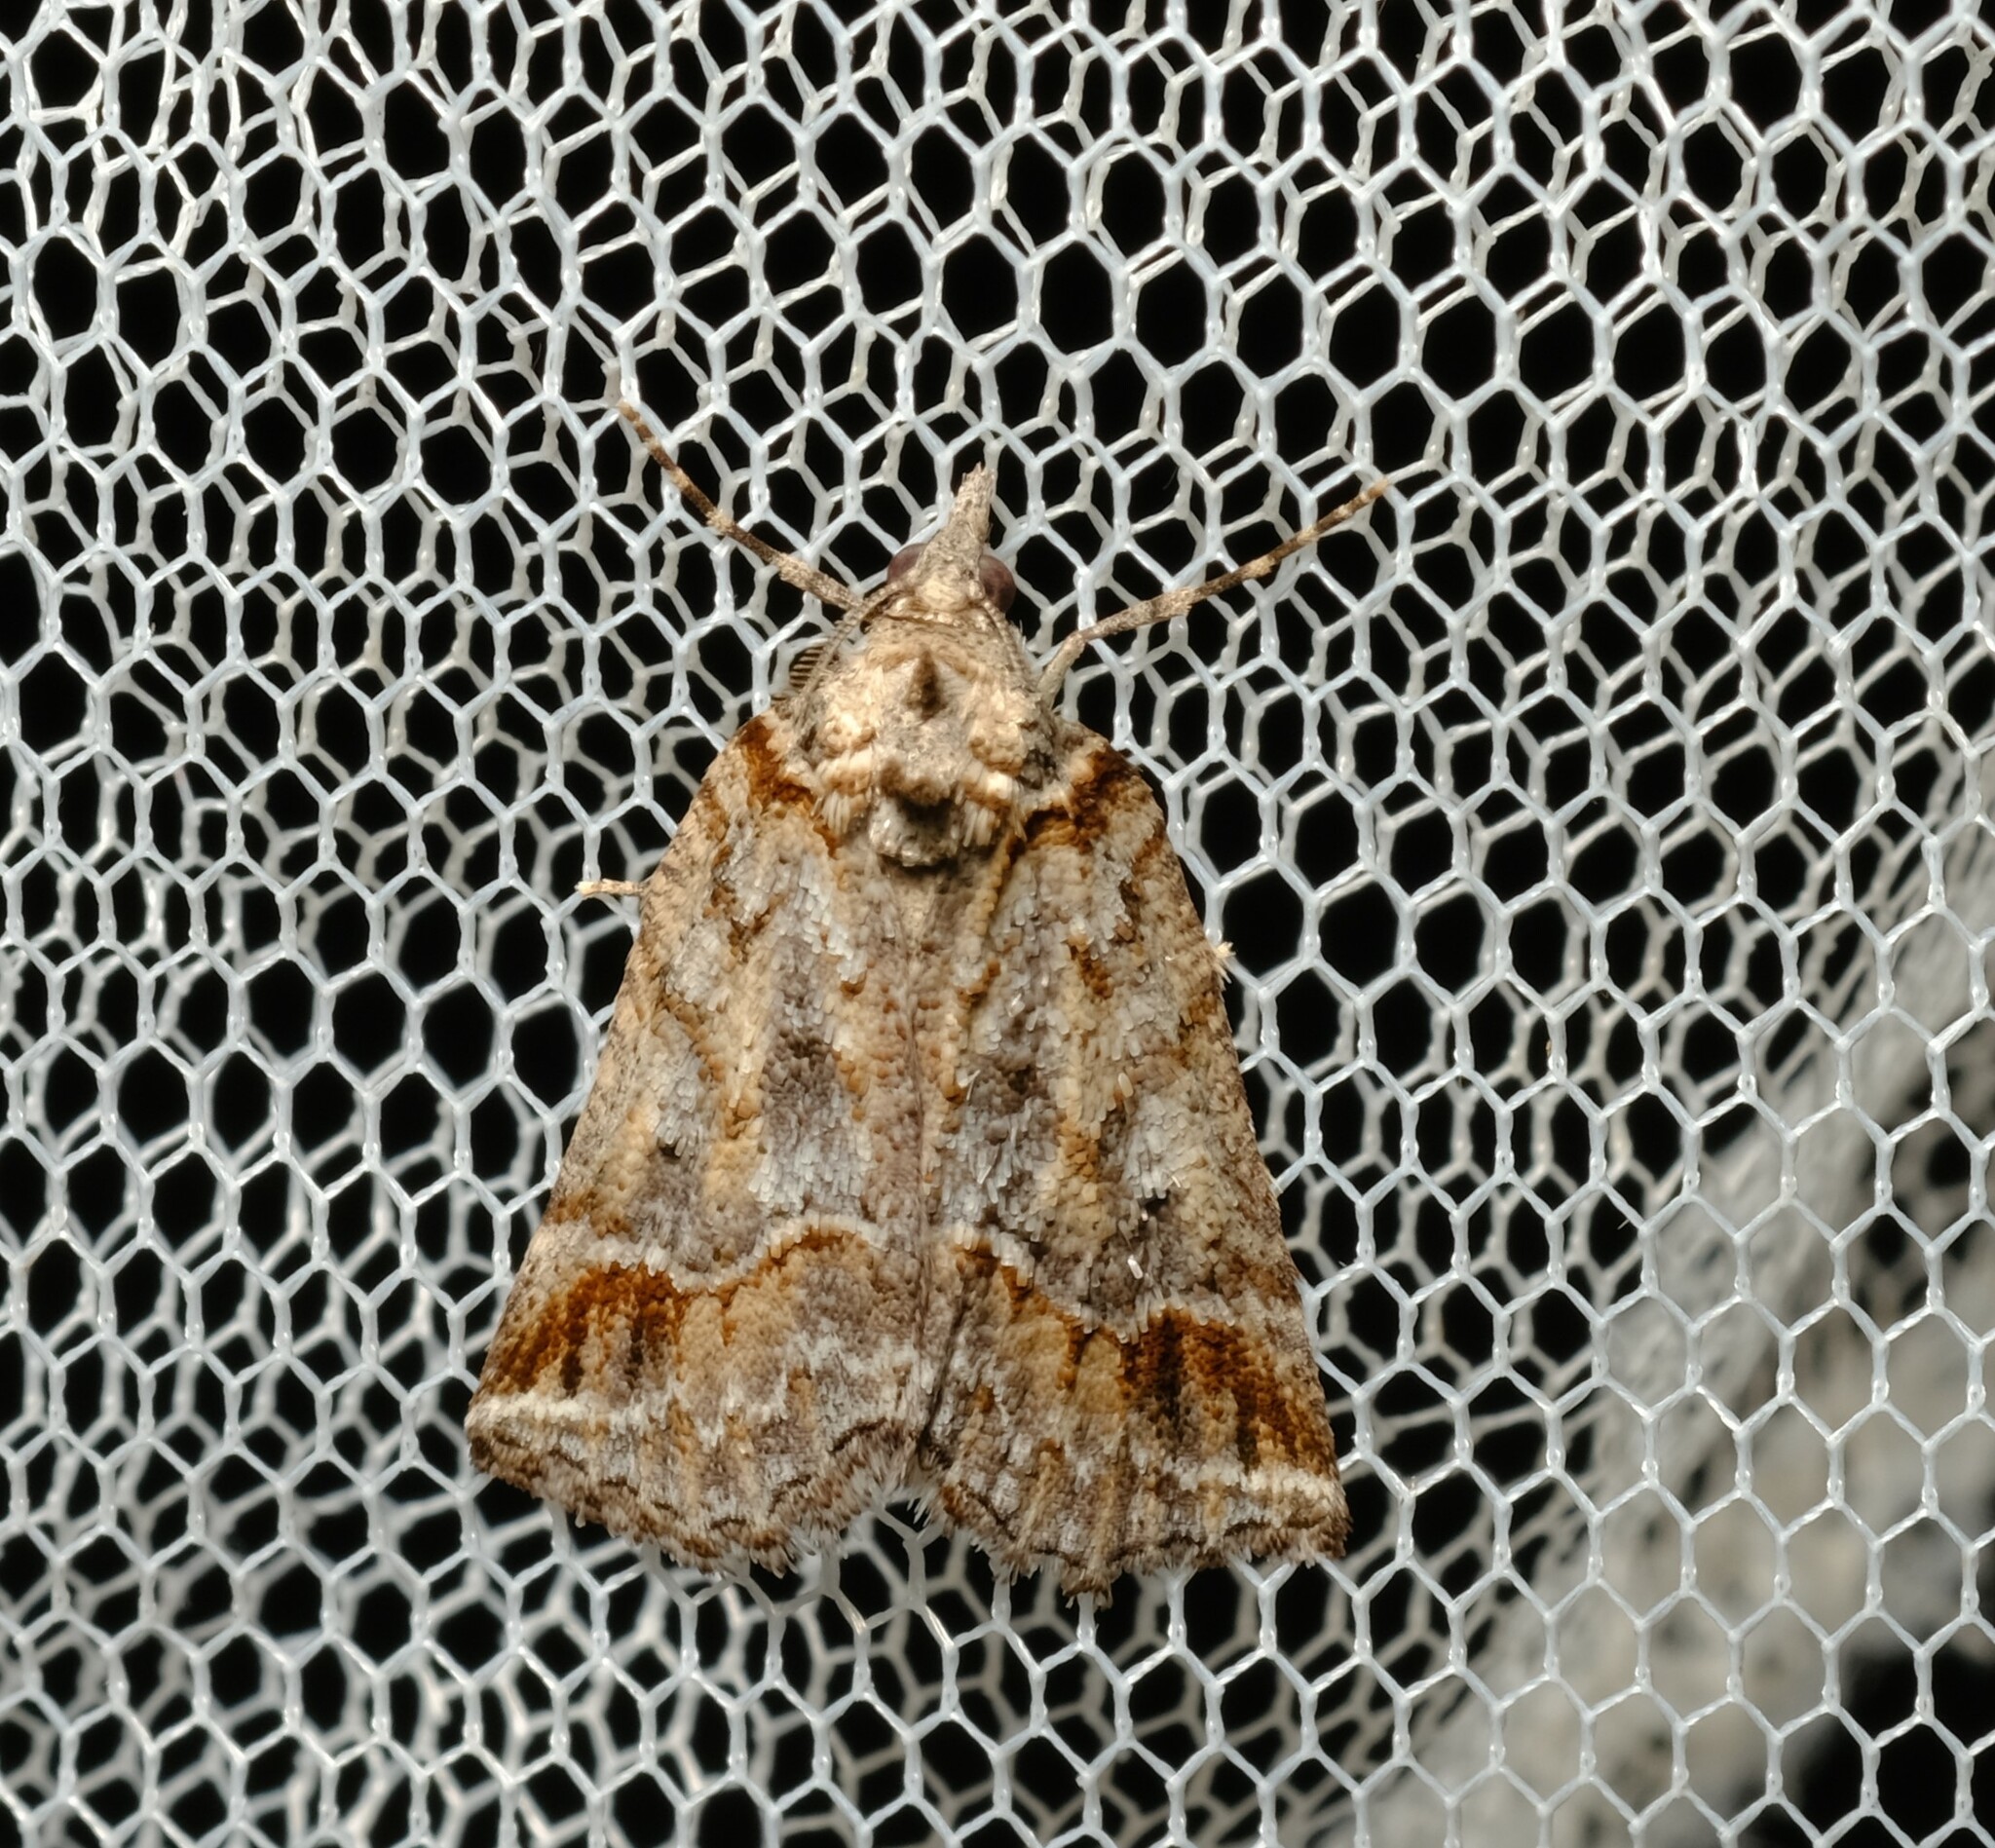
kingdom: Animalia
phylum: Arthropoda
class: Insecta
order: Lepidoptera
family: Geometridae
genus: Plesiolaea
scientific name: Plesiolaea promacha
